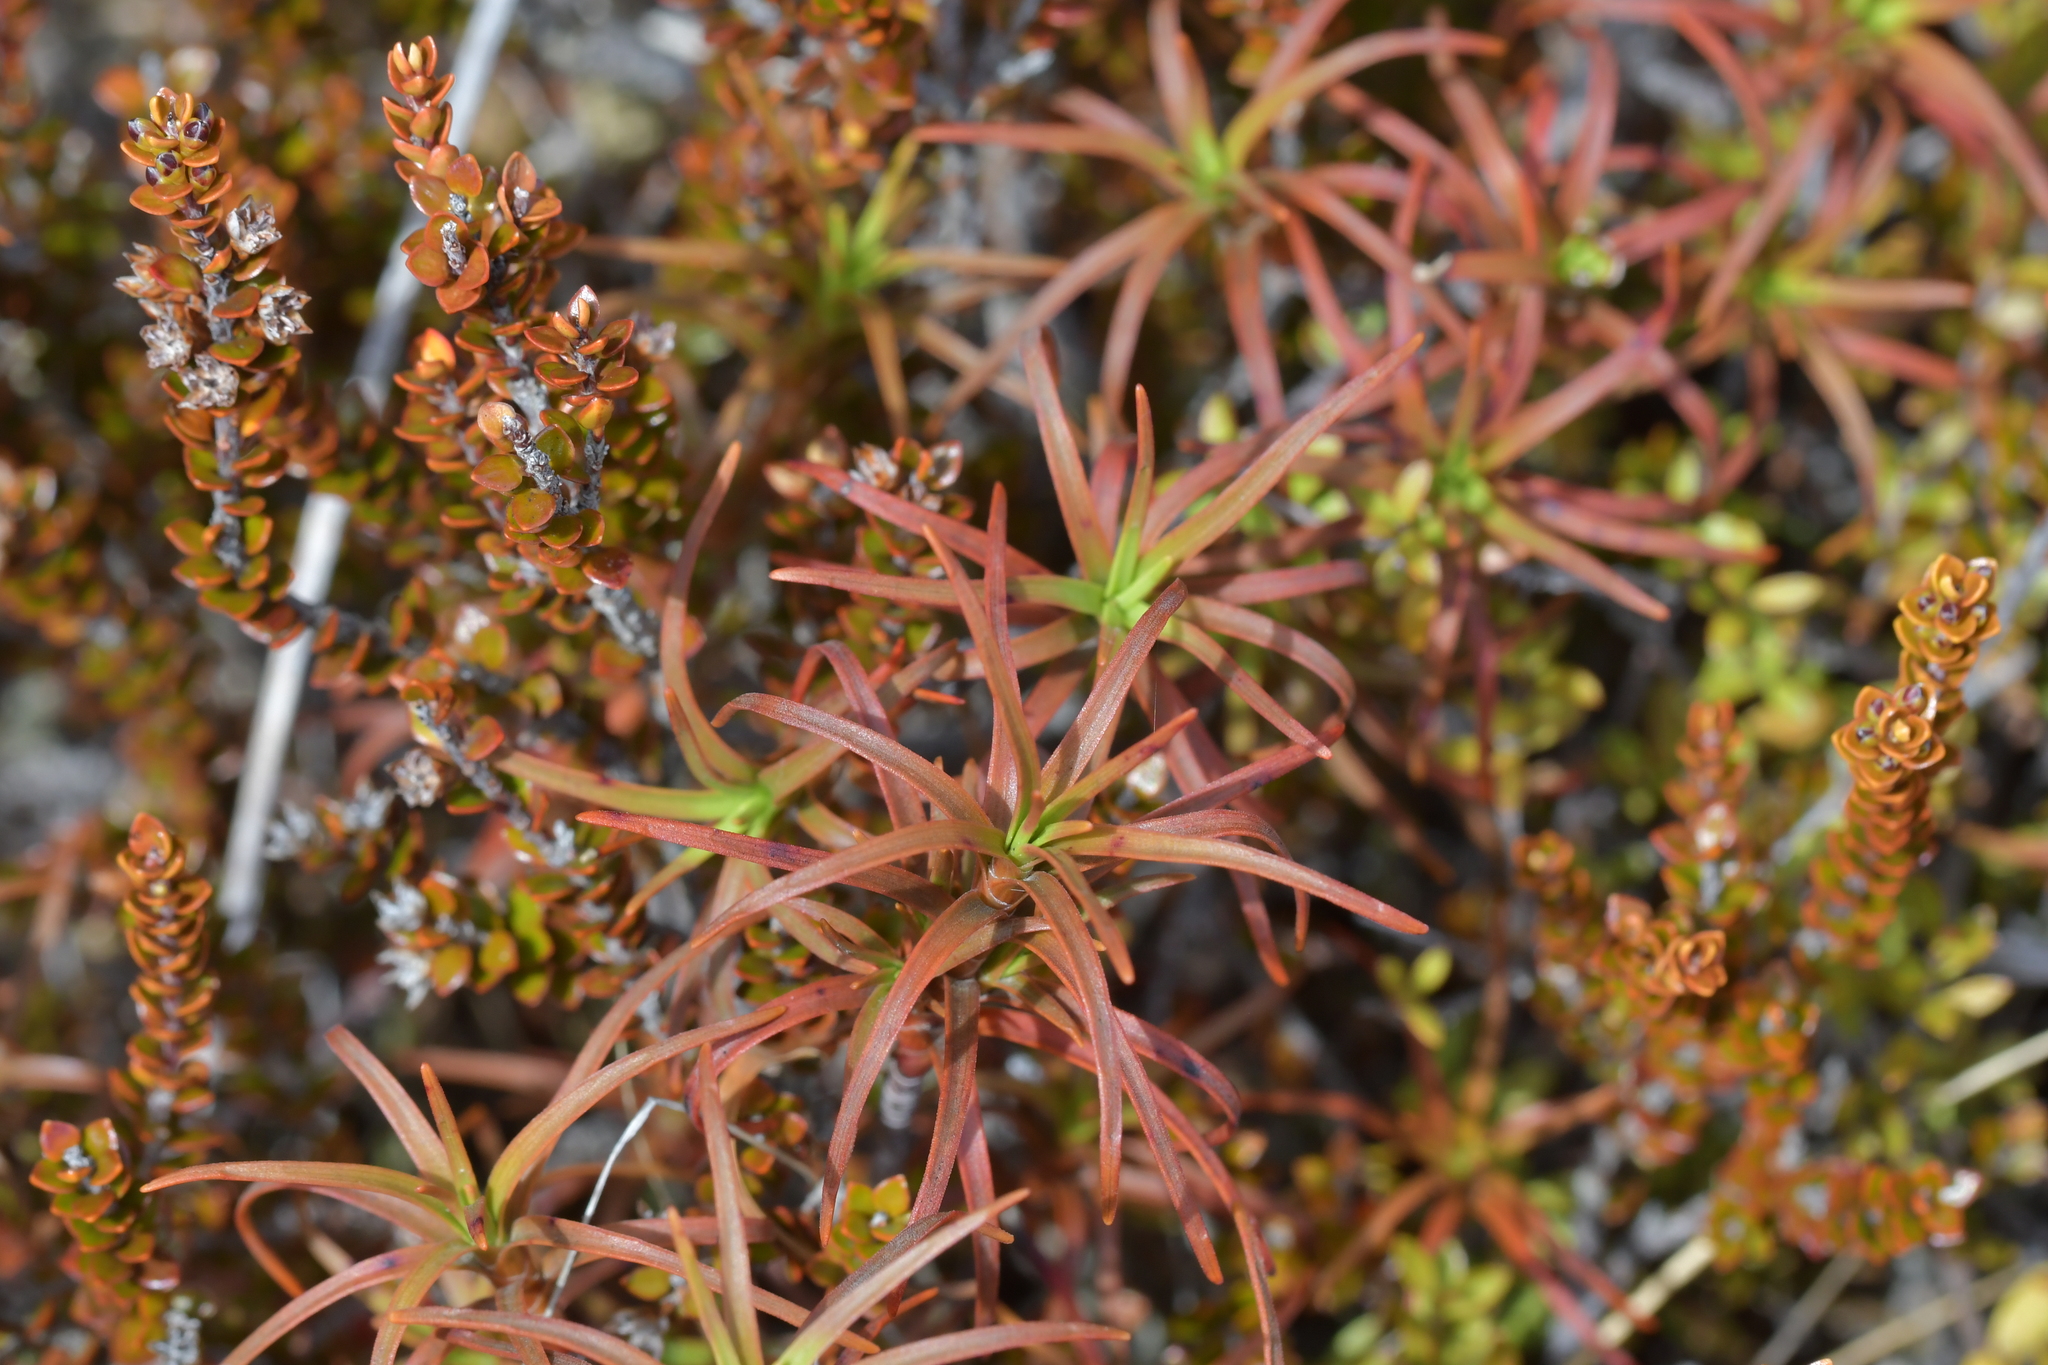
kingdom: Plantae
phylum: Tracheophyta
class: Magnoliopsida
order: Ericales
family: Ericaceae
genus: Dracophyllum
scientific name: Dracophyllum recurvum
